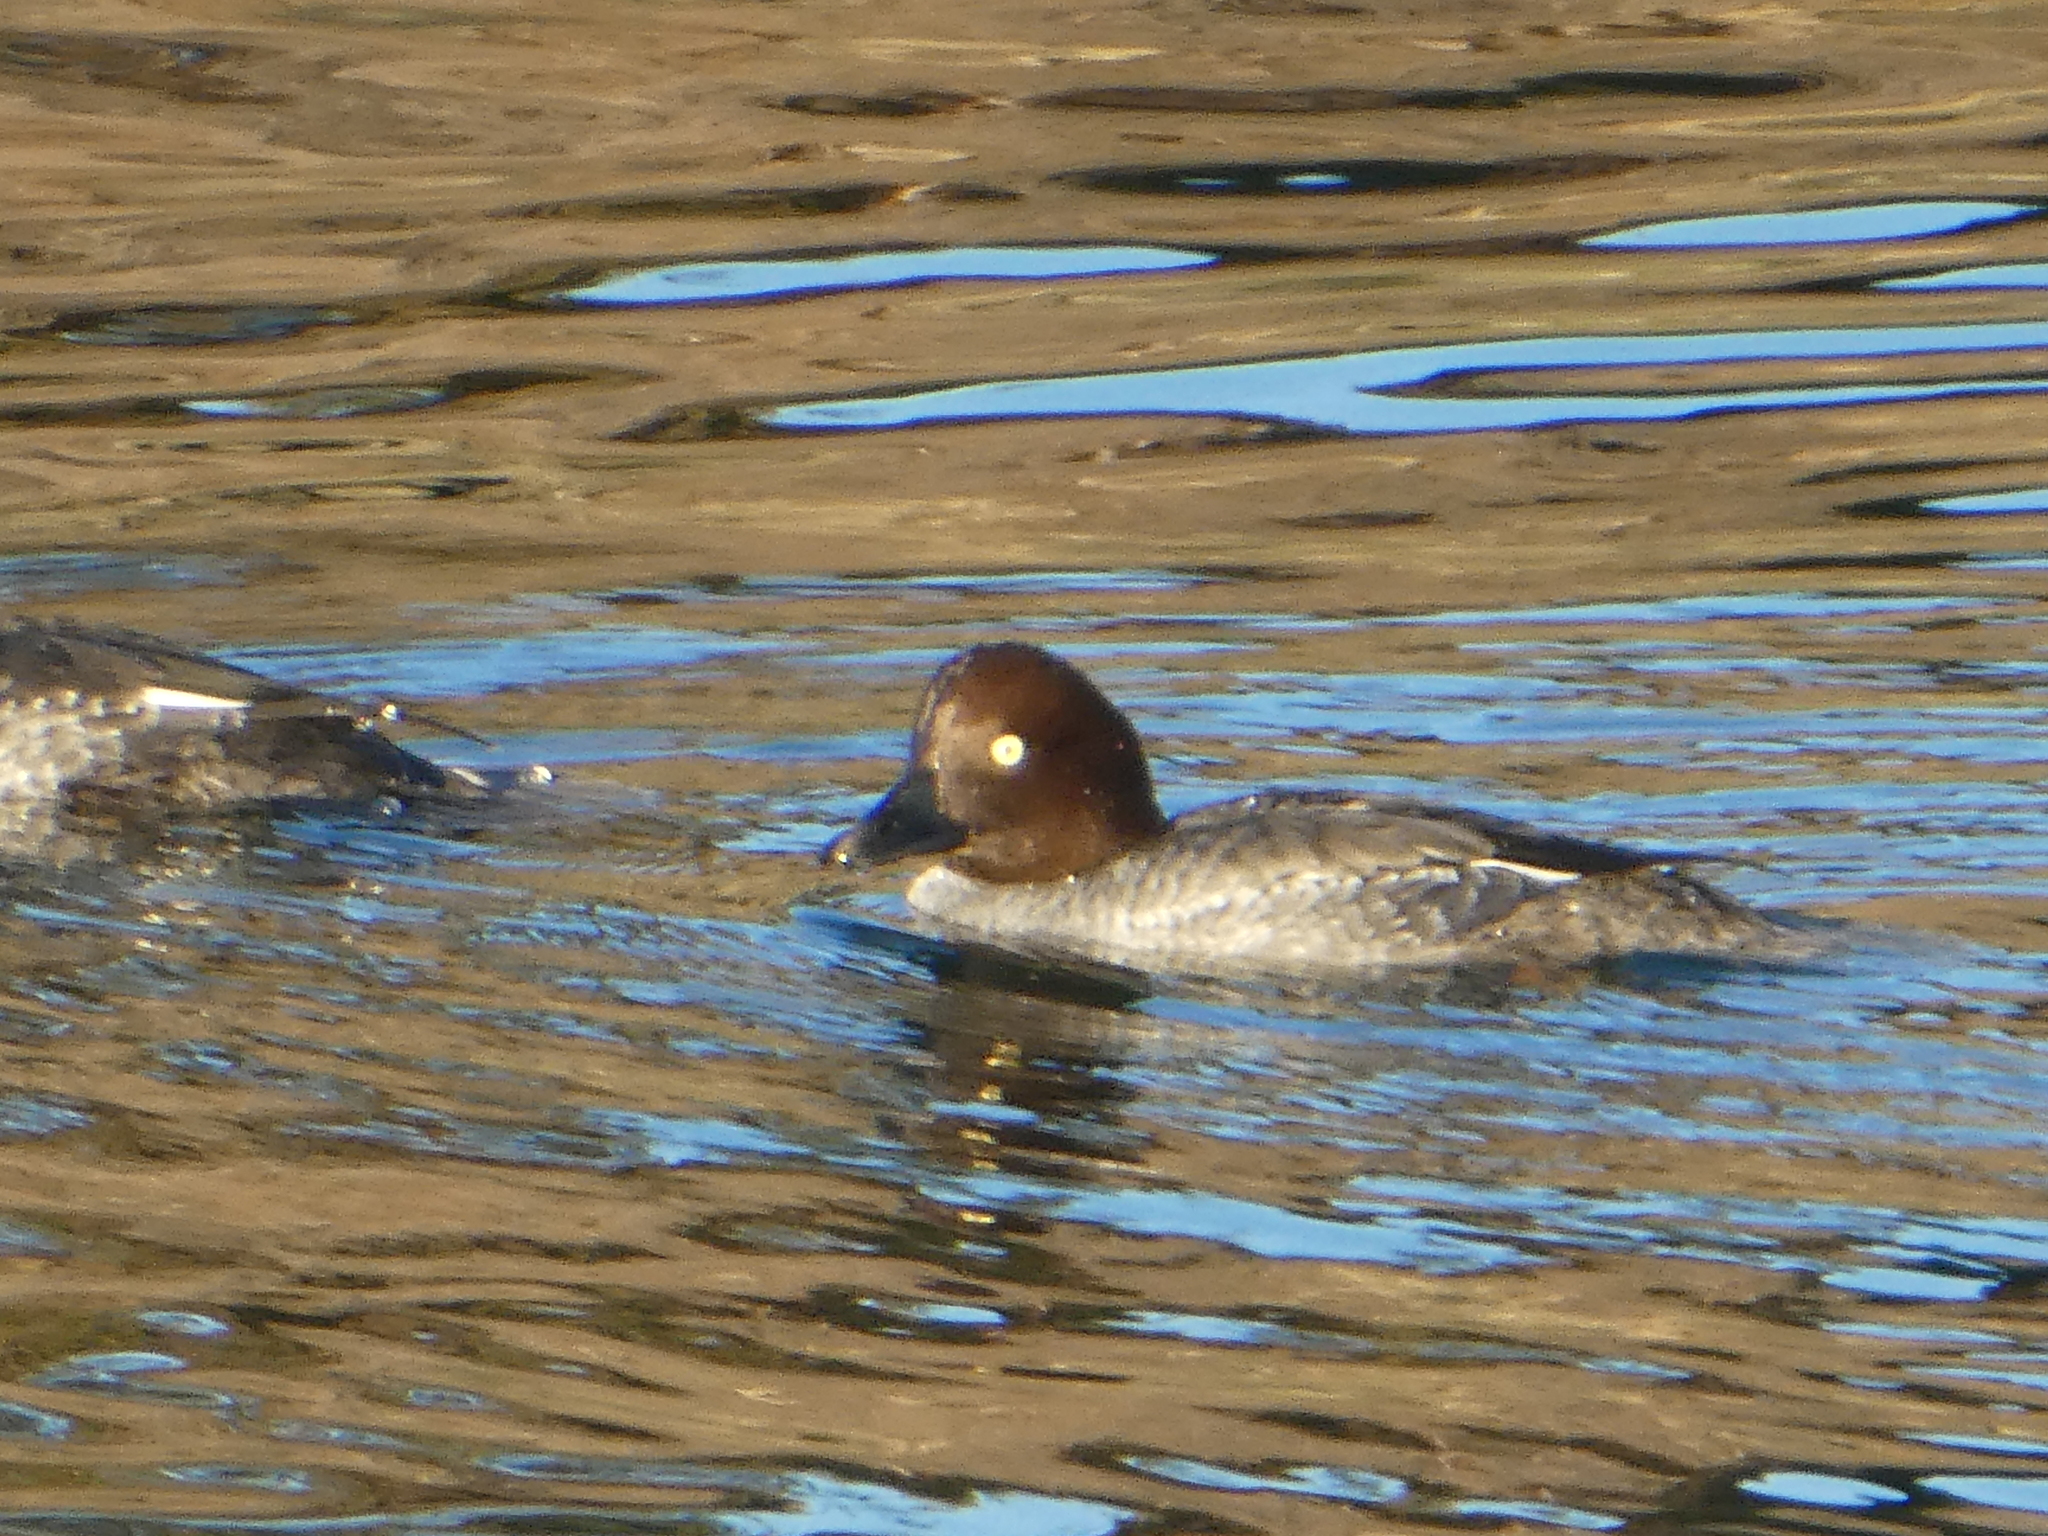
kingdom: Animalia
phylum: Chordata
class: Aves
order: Anseriformes
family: Anatidae
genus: Bucephala
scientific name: Bucephala clangula
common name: Common goldeneye
